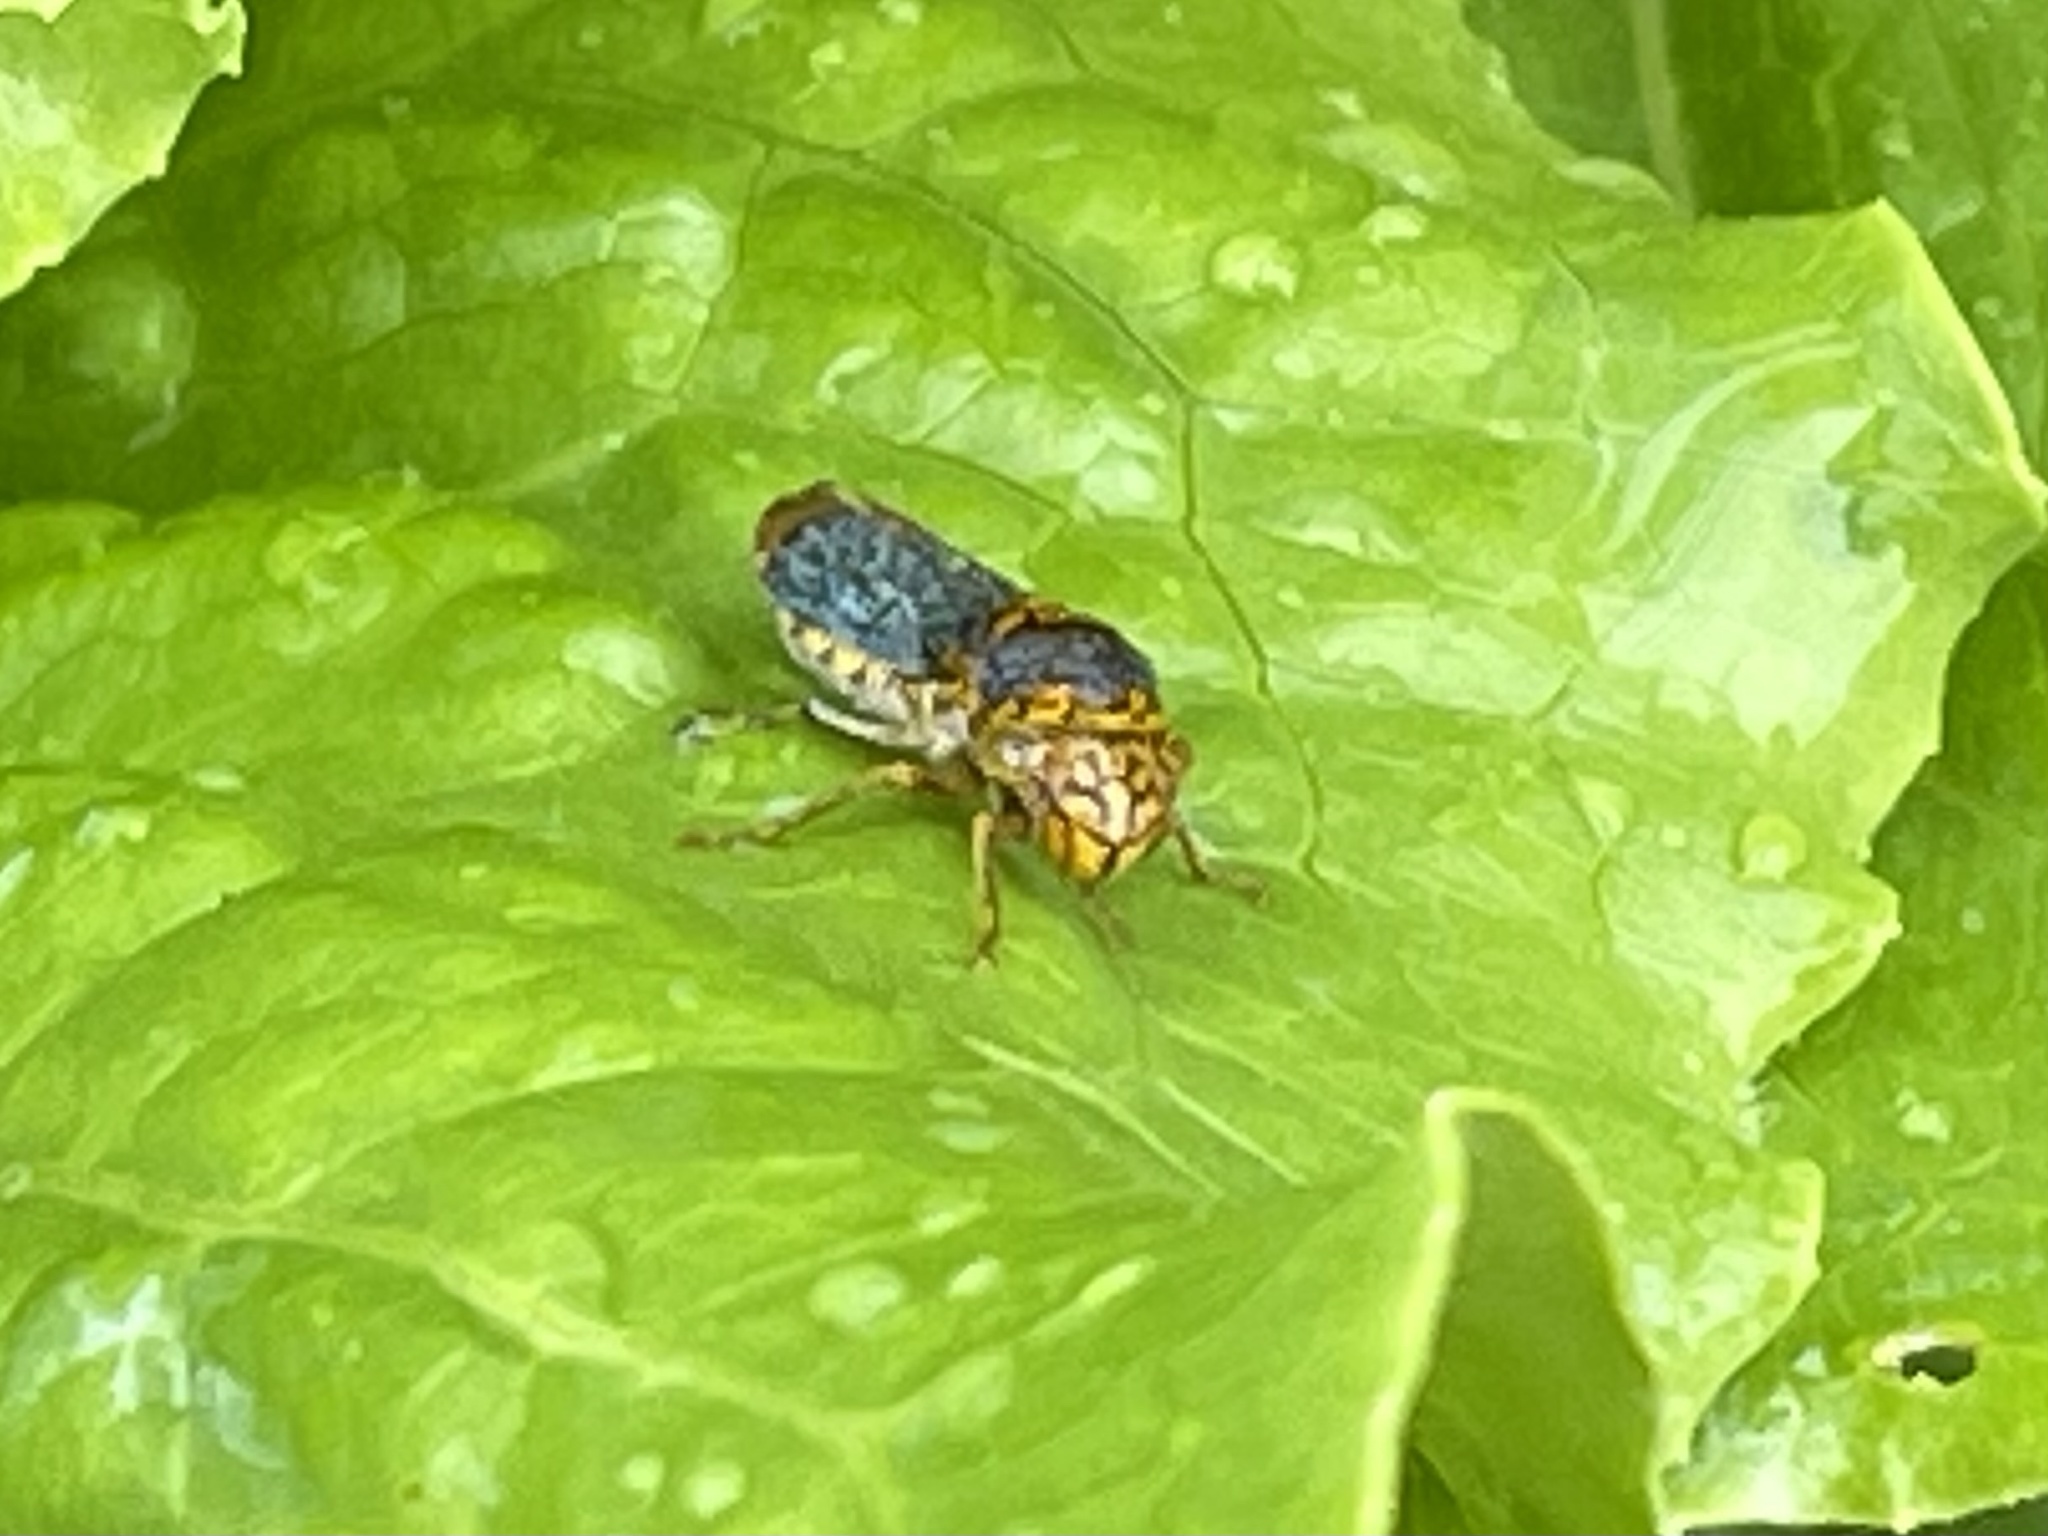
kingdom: Animalia
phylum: Arthropoda
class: Insecta
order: Hemiptera
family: Cicadellidae
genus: Oncometopia
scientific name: Oncometopia orbona
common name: Broad-headed sharpshooter
